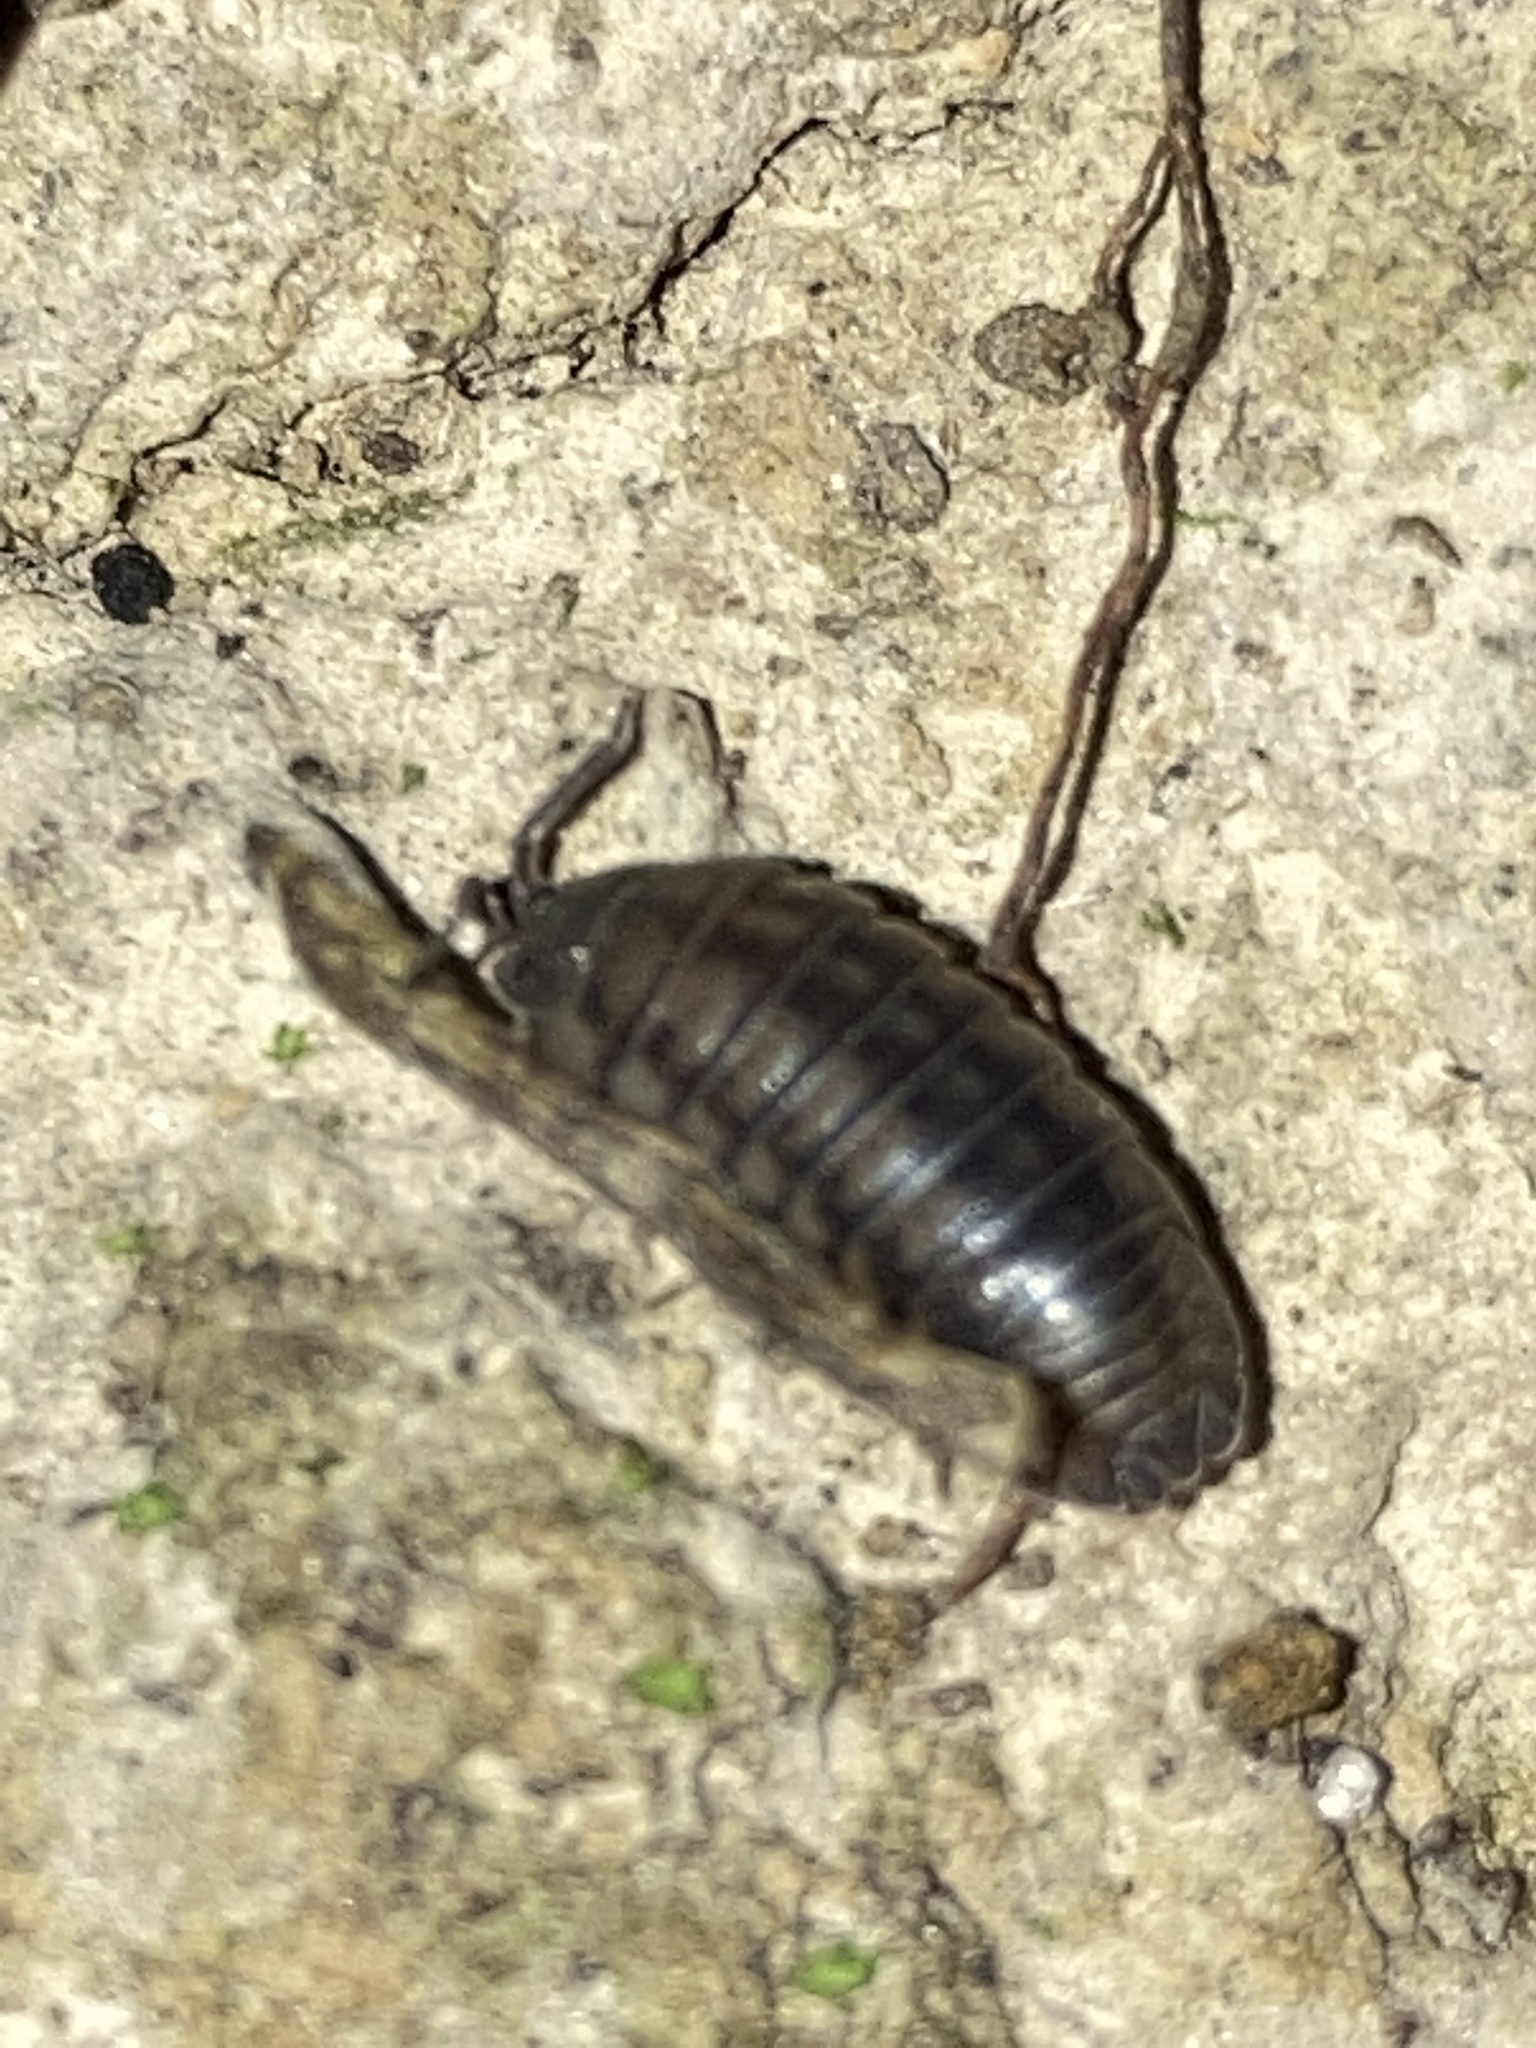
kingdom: Animalia
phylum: Arthropoda
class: Malacostraca
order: Isopoda
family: Armadillidiidae
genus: Armadillidium
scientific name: Armadillidium nasatum
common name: Isopod
